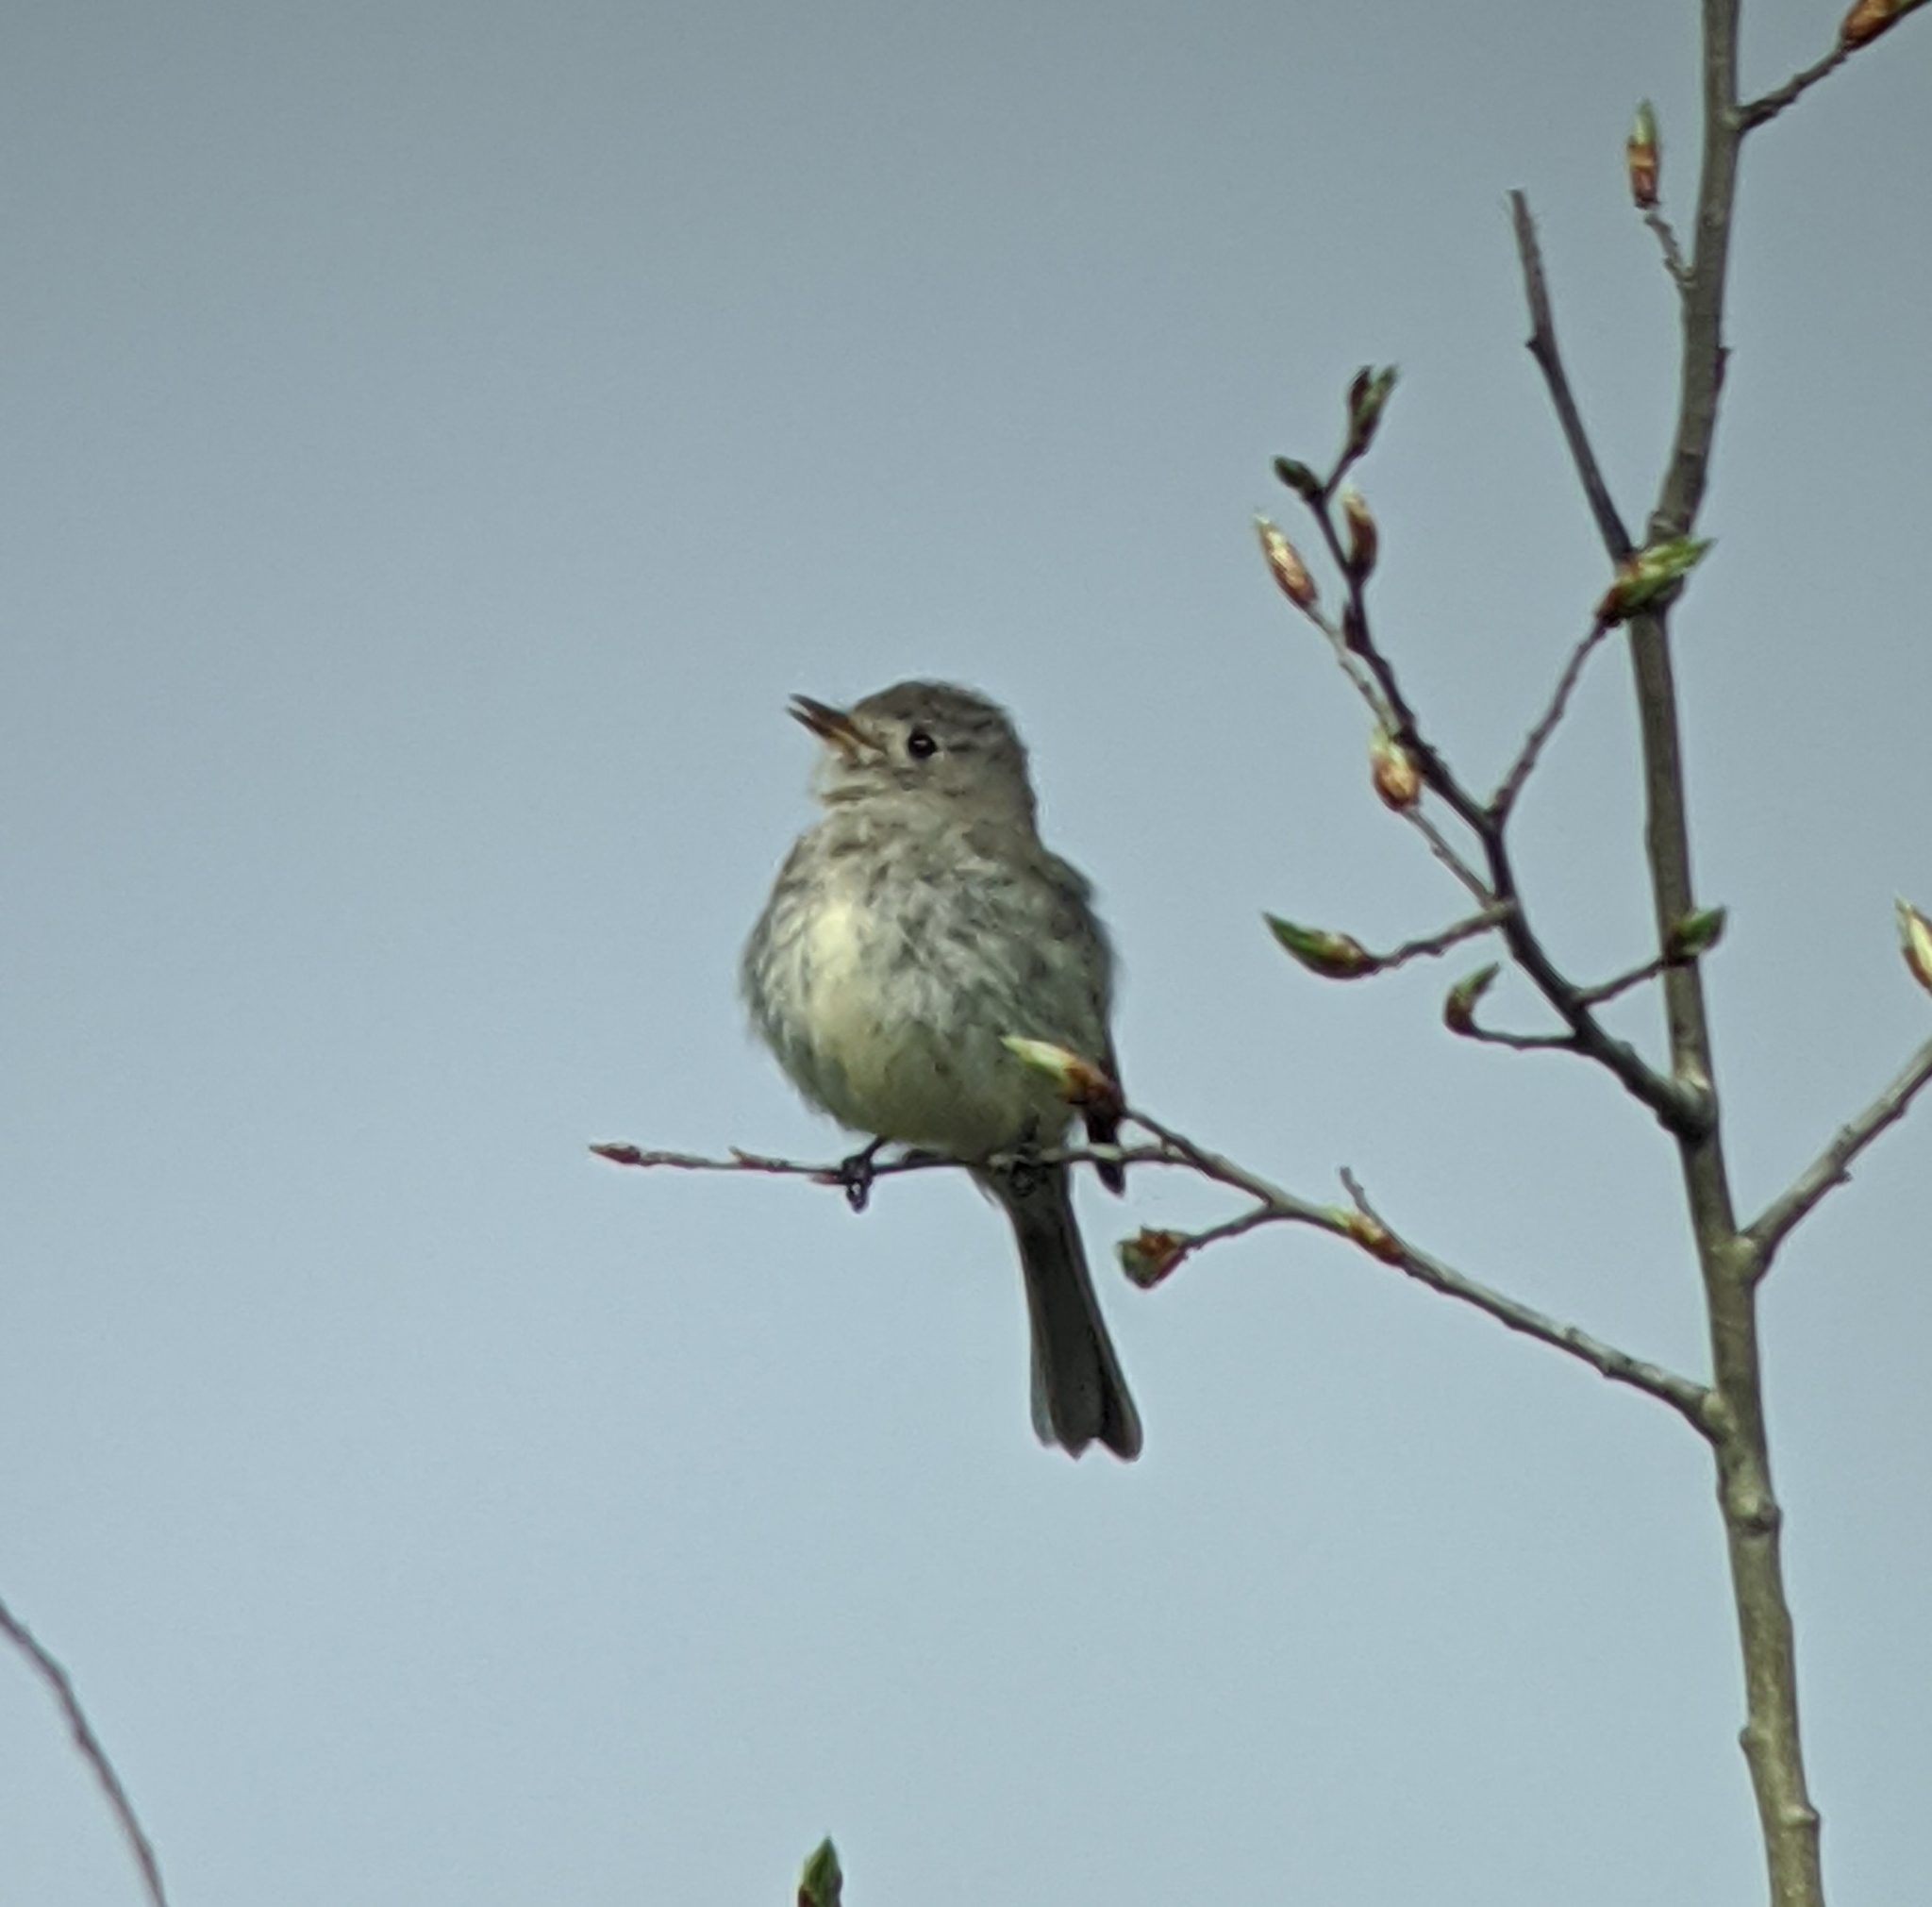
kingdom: Animalia
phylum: Chordata
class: Aves
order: Passeriformes
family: Tyrannidae
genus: Empidonax
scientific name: Empidonax oberholseri
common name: Dusky flycatcher
